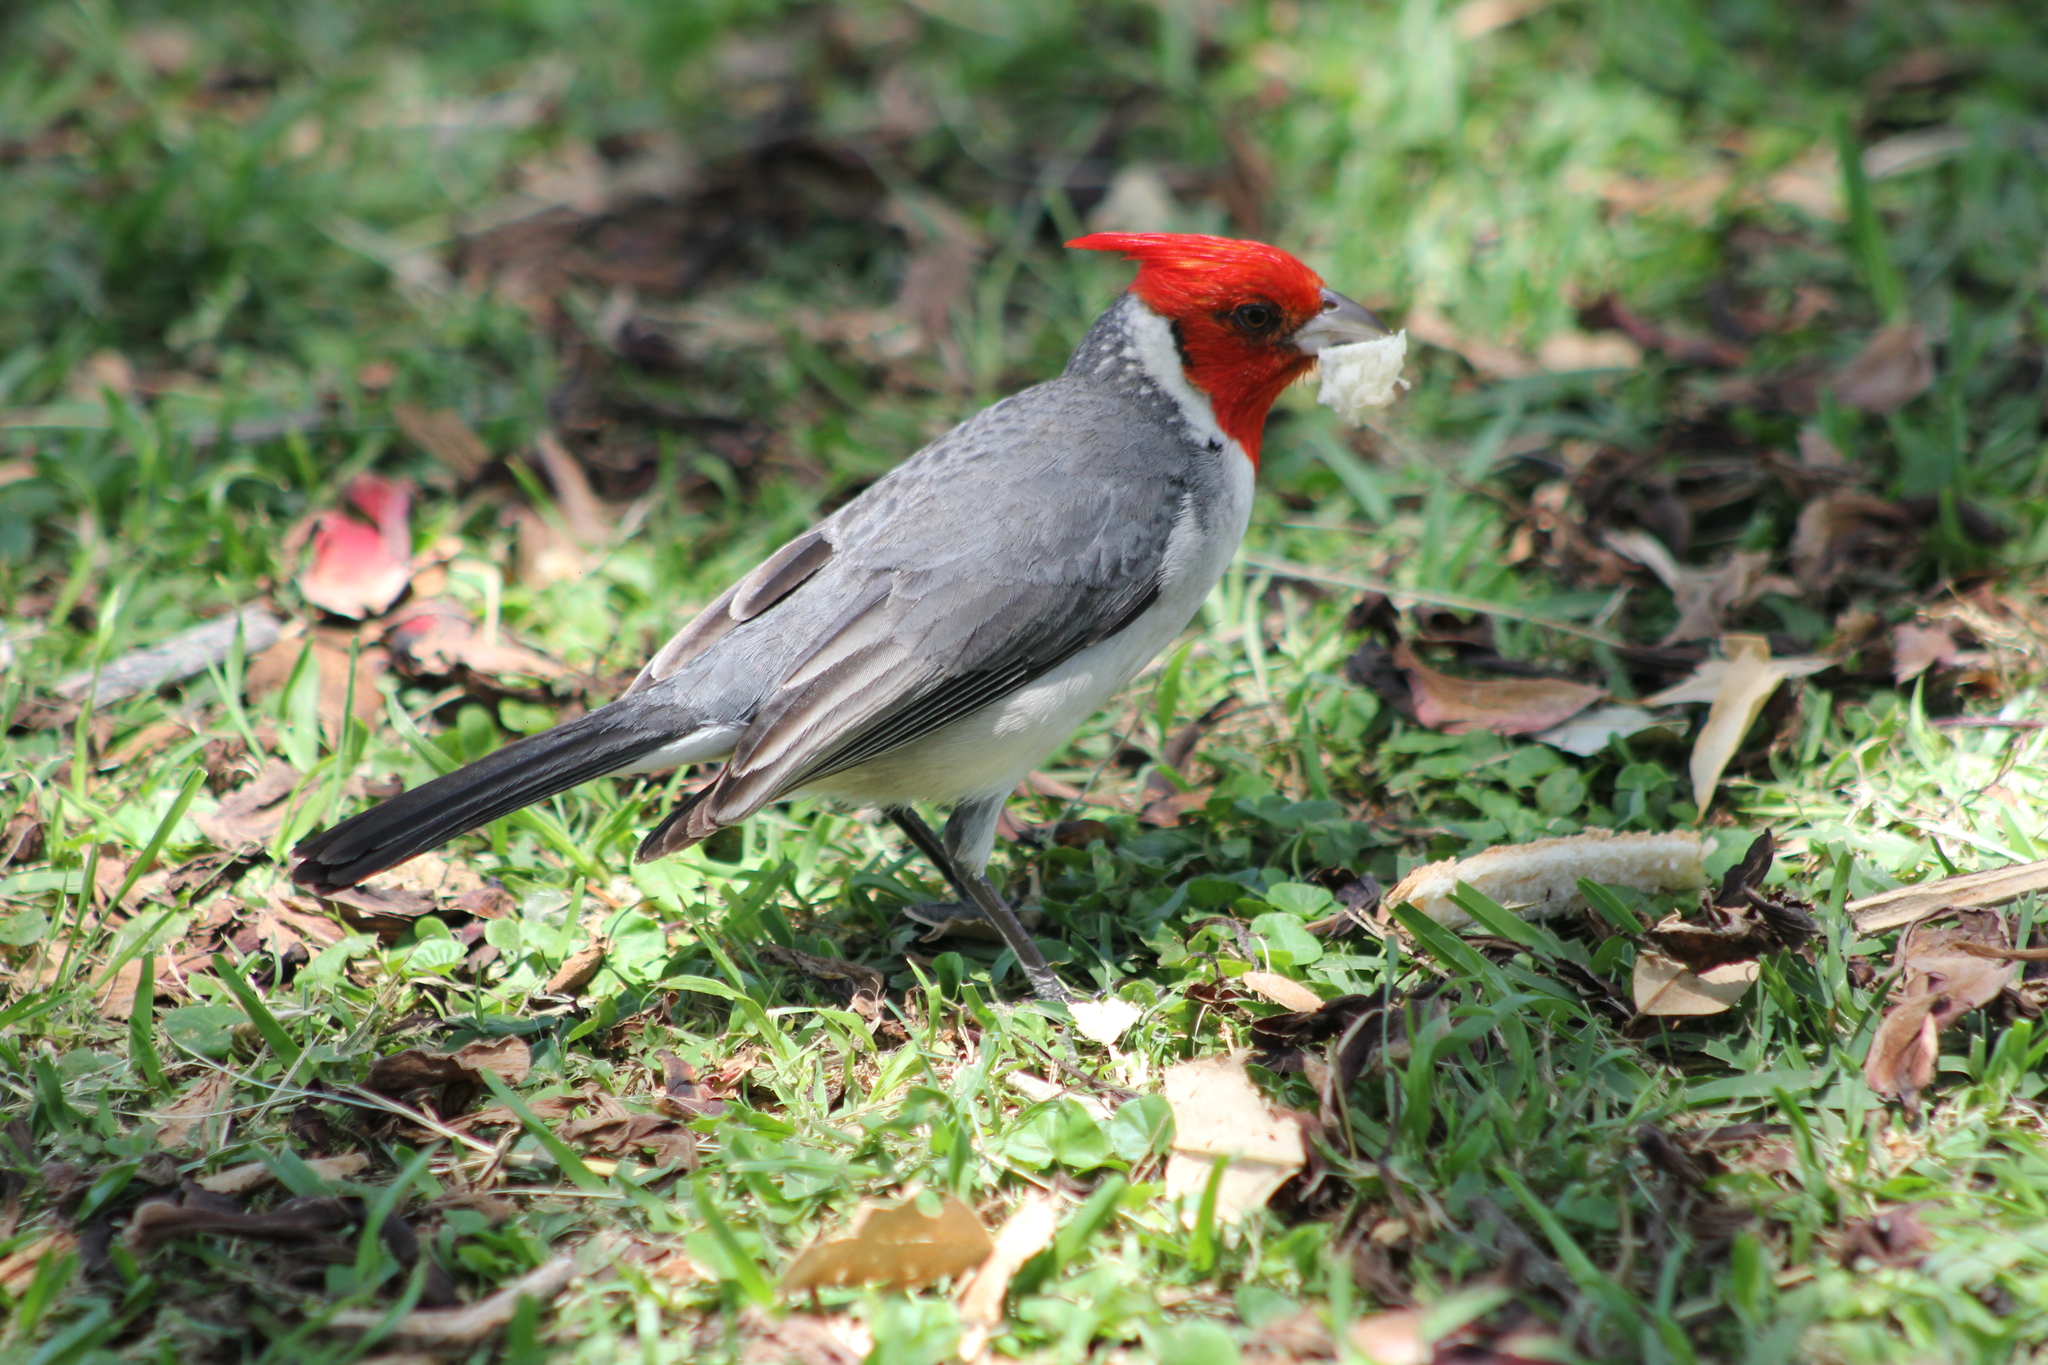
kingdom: Animalia
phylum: Chordata
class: Aves
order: Passeriformes
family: Thraupidae
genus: Paroaria
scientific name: Paroaria coronata
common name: Red-crested cardinal
